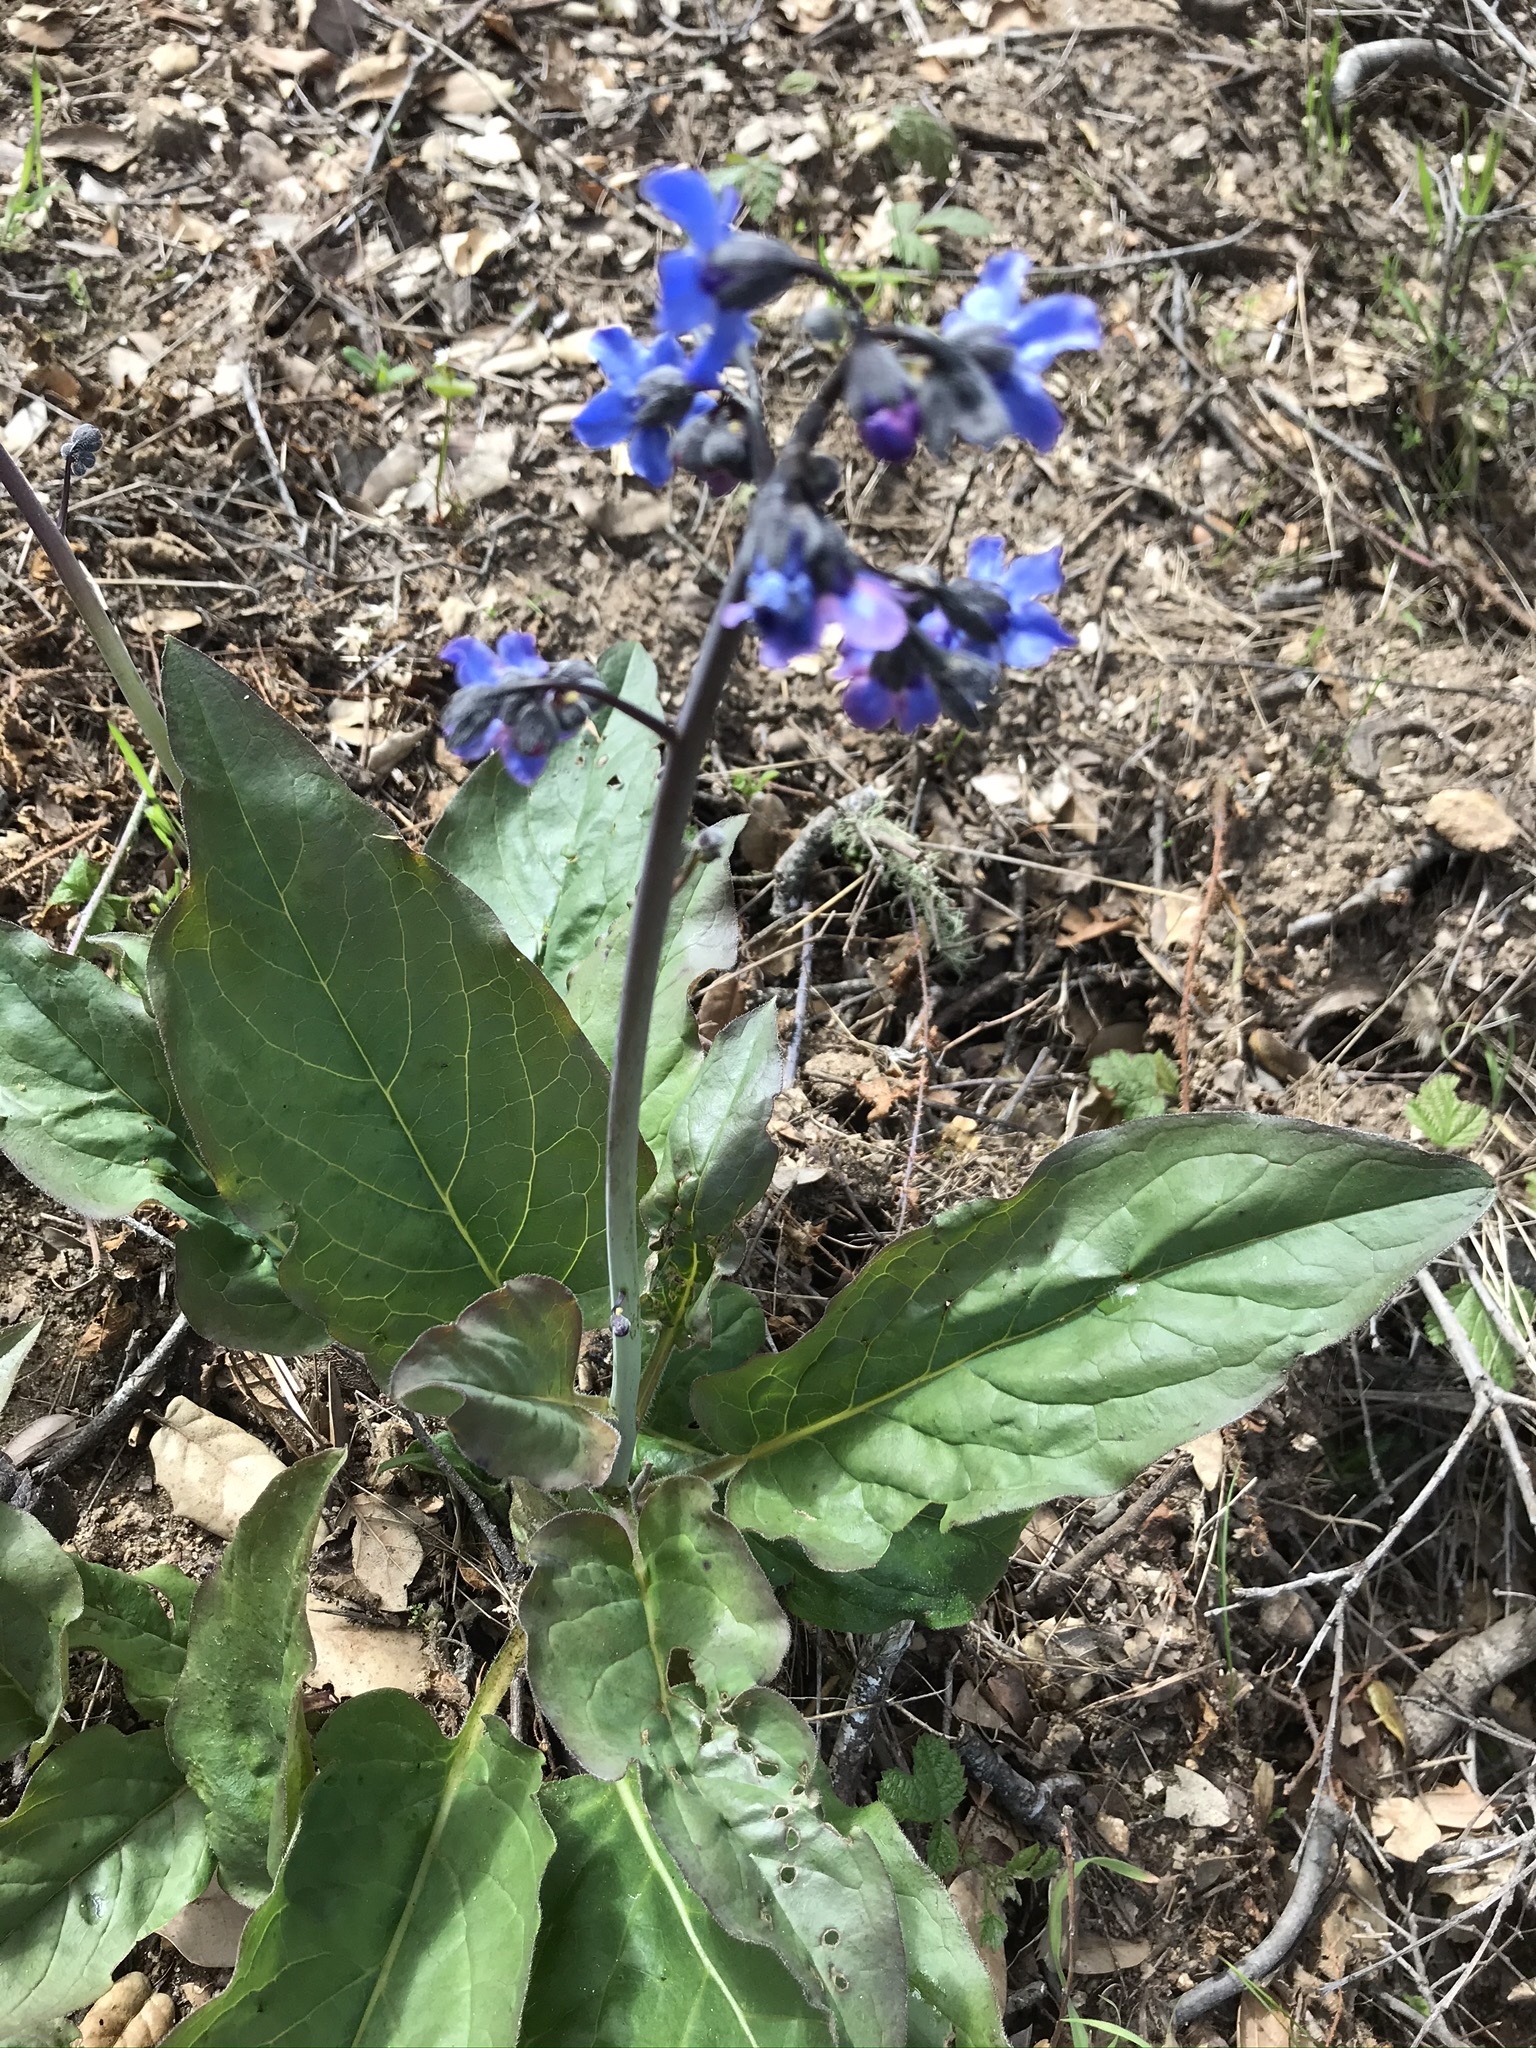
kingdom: Plantae
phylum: Tracheophyta
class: Magnoliopsida
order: Boraginales
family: Boraginaceae
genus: Adelinia
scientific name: Adelinia grande
